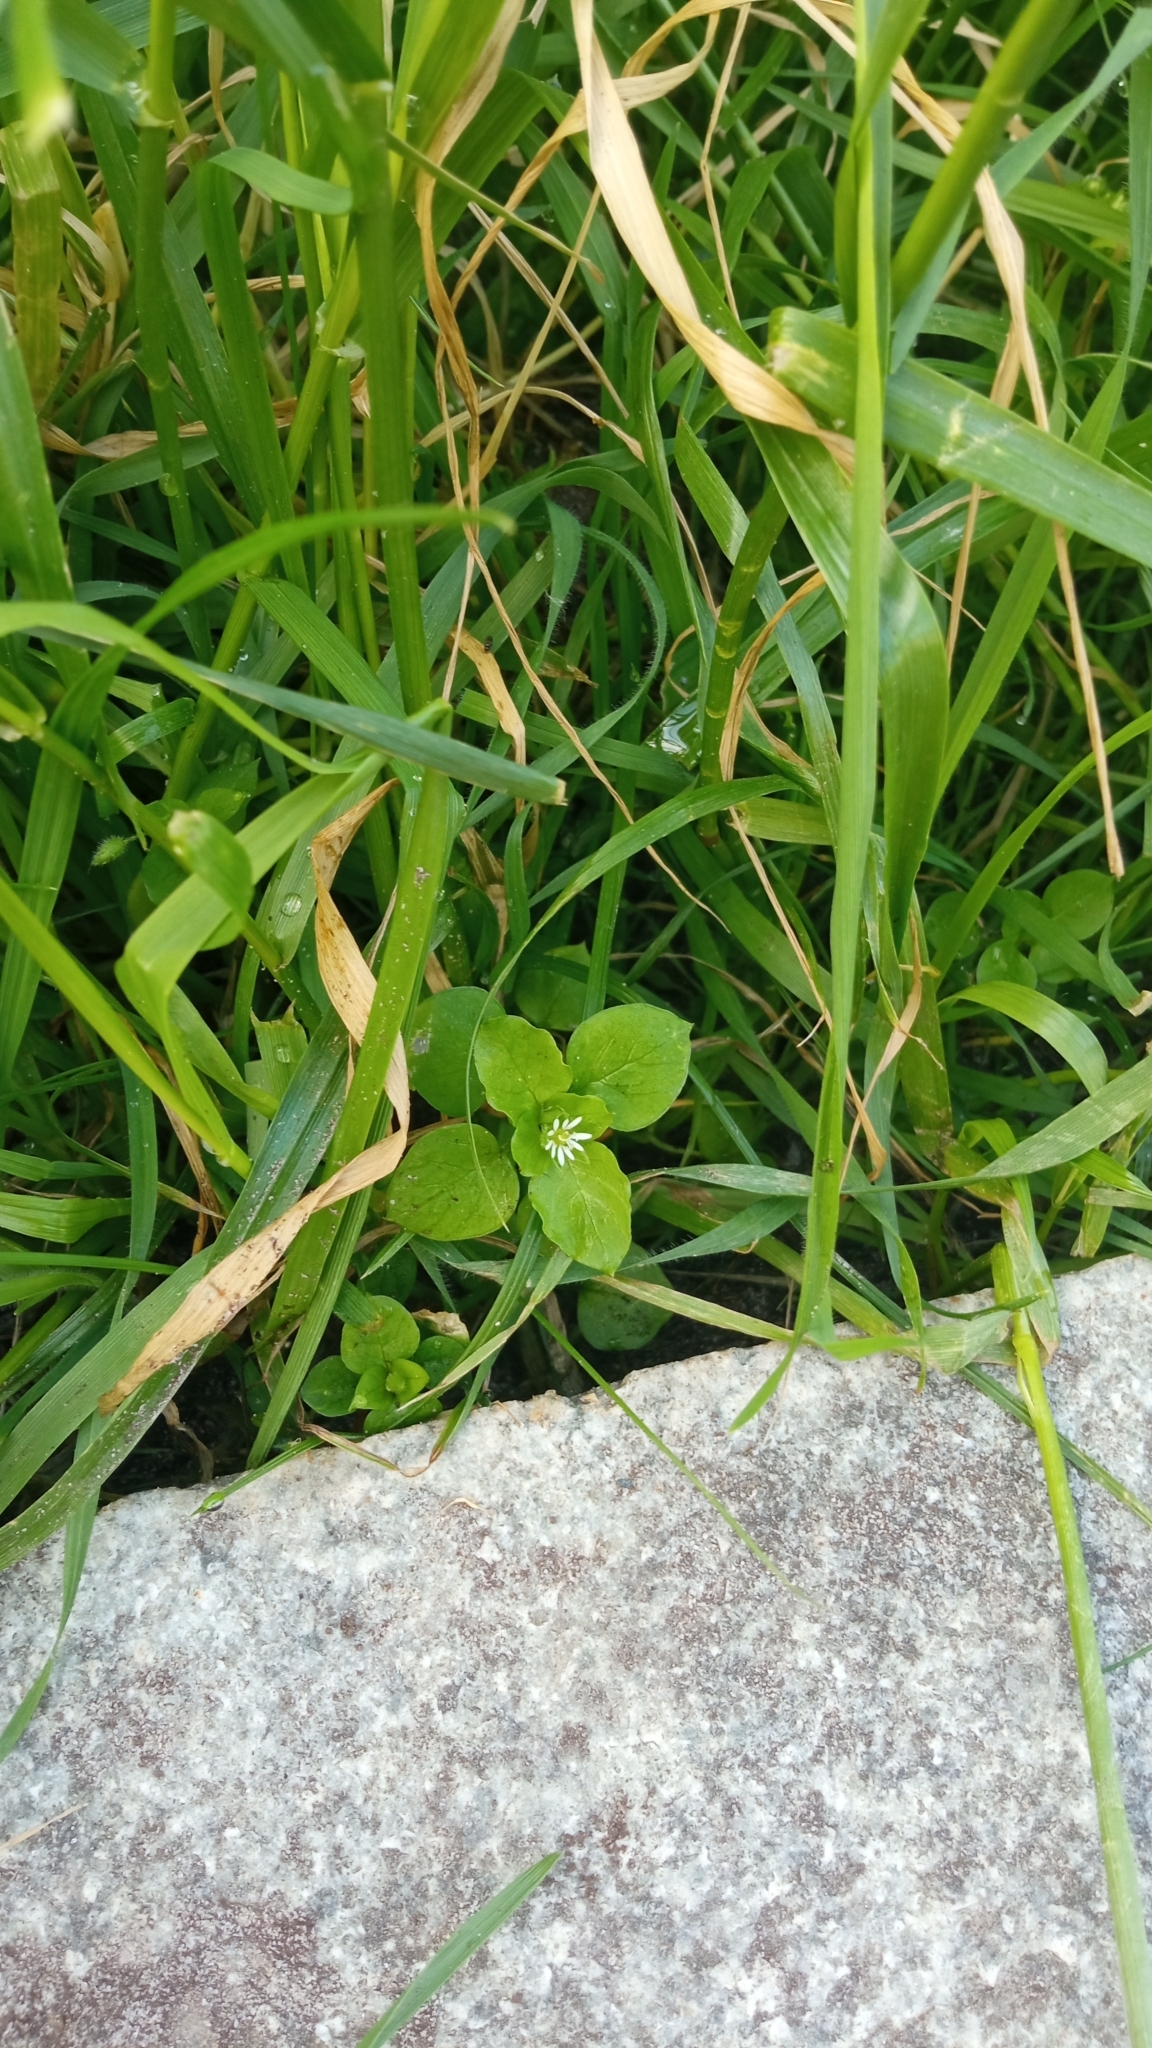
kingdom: Plantae
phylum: Tracheophyta
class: Magnoliopsida
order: Caryophyllales
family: Caryophyllaceae
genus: Stellaria
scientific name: Stellaria media
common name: Common chickweed
